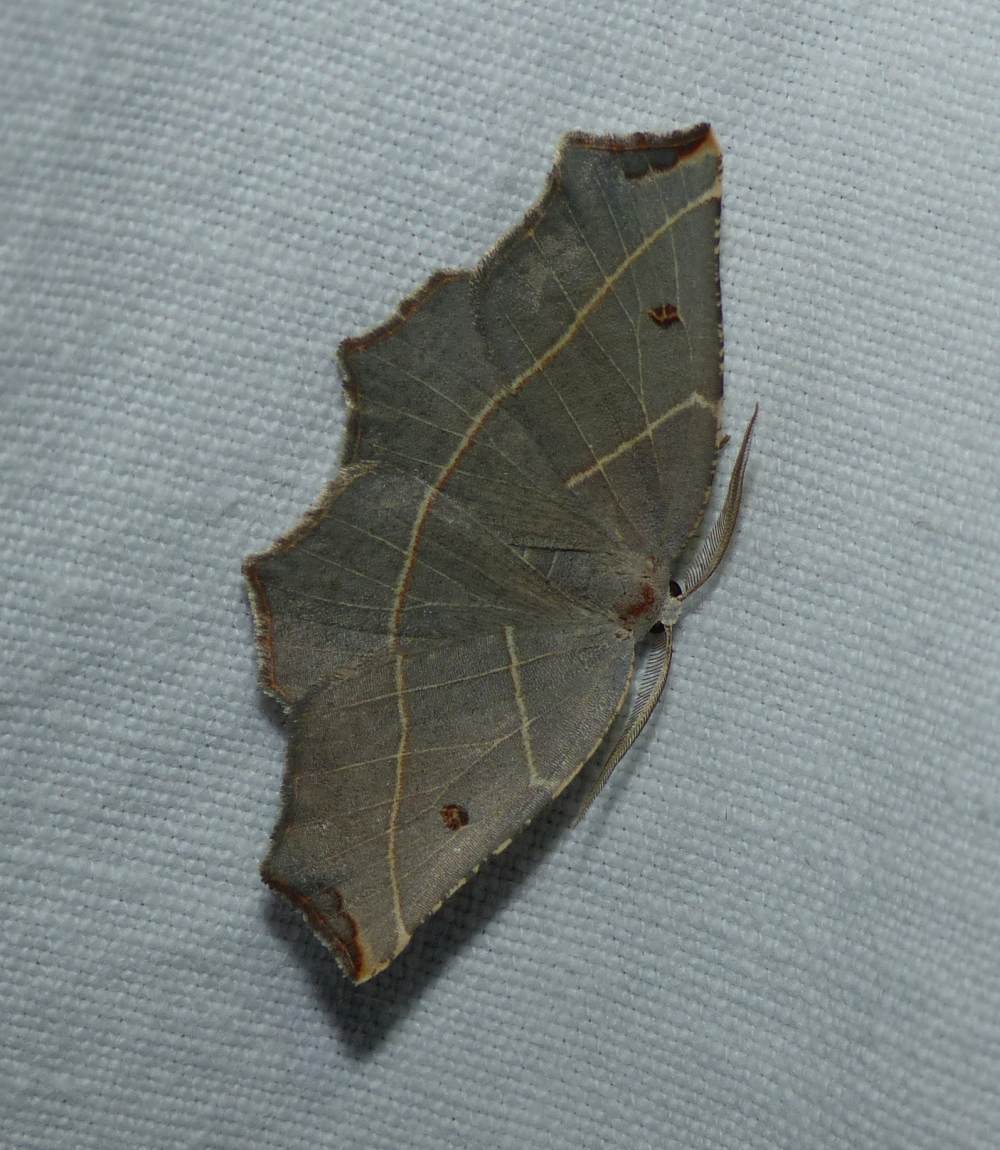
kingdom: Animalia
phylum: Arthropoda
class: Insecta
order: Lepidoptera
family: Geometridae
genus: Metanema
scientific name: Metanema inatomaria
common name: Pale metanema
